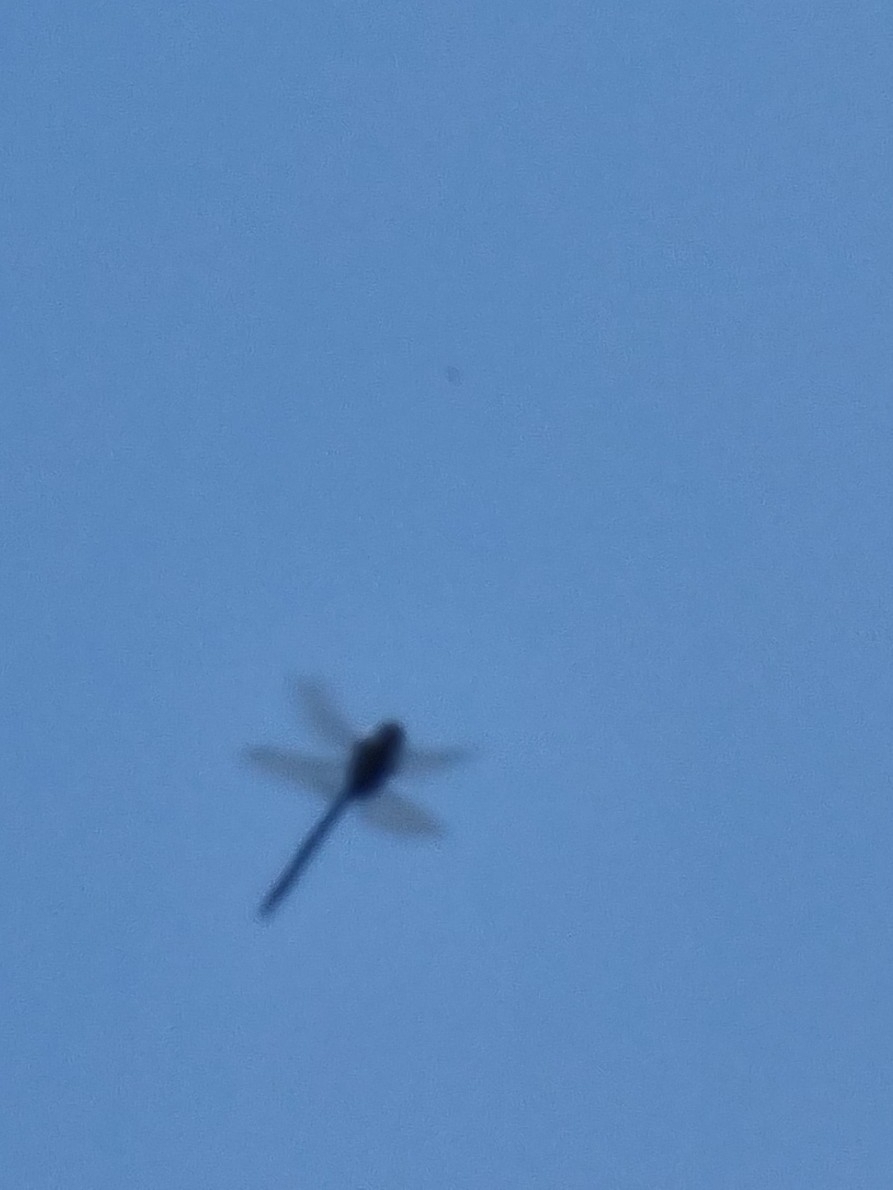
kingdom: Animalia
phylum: Arthropoda
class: Insecta
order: Odonata
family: Aeshnidae
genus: Anax
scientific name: Anax imperator
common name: Emperor dragonfly
